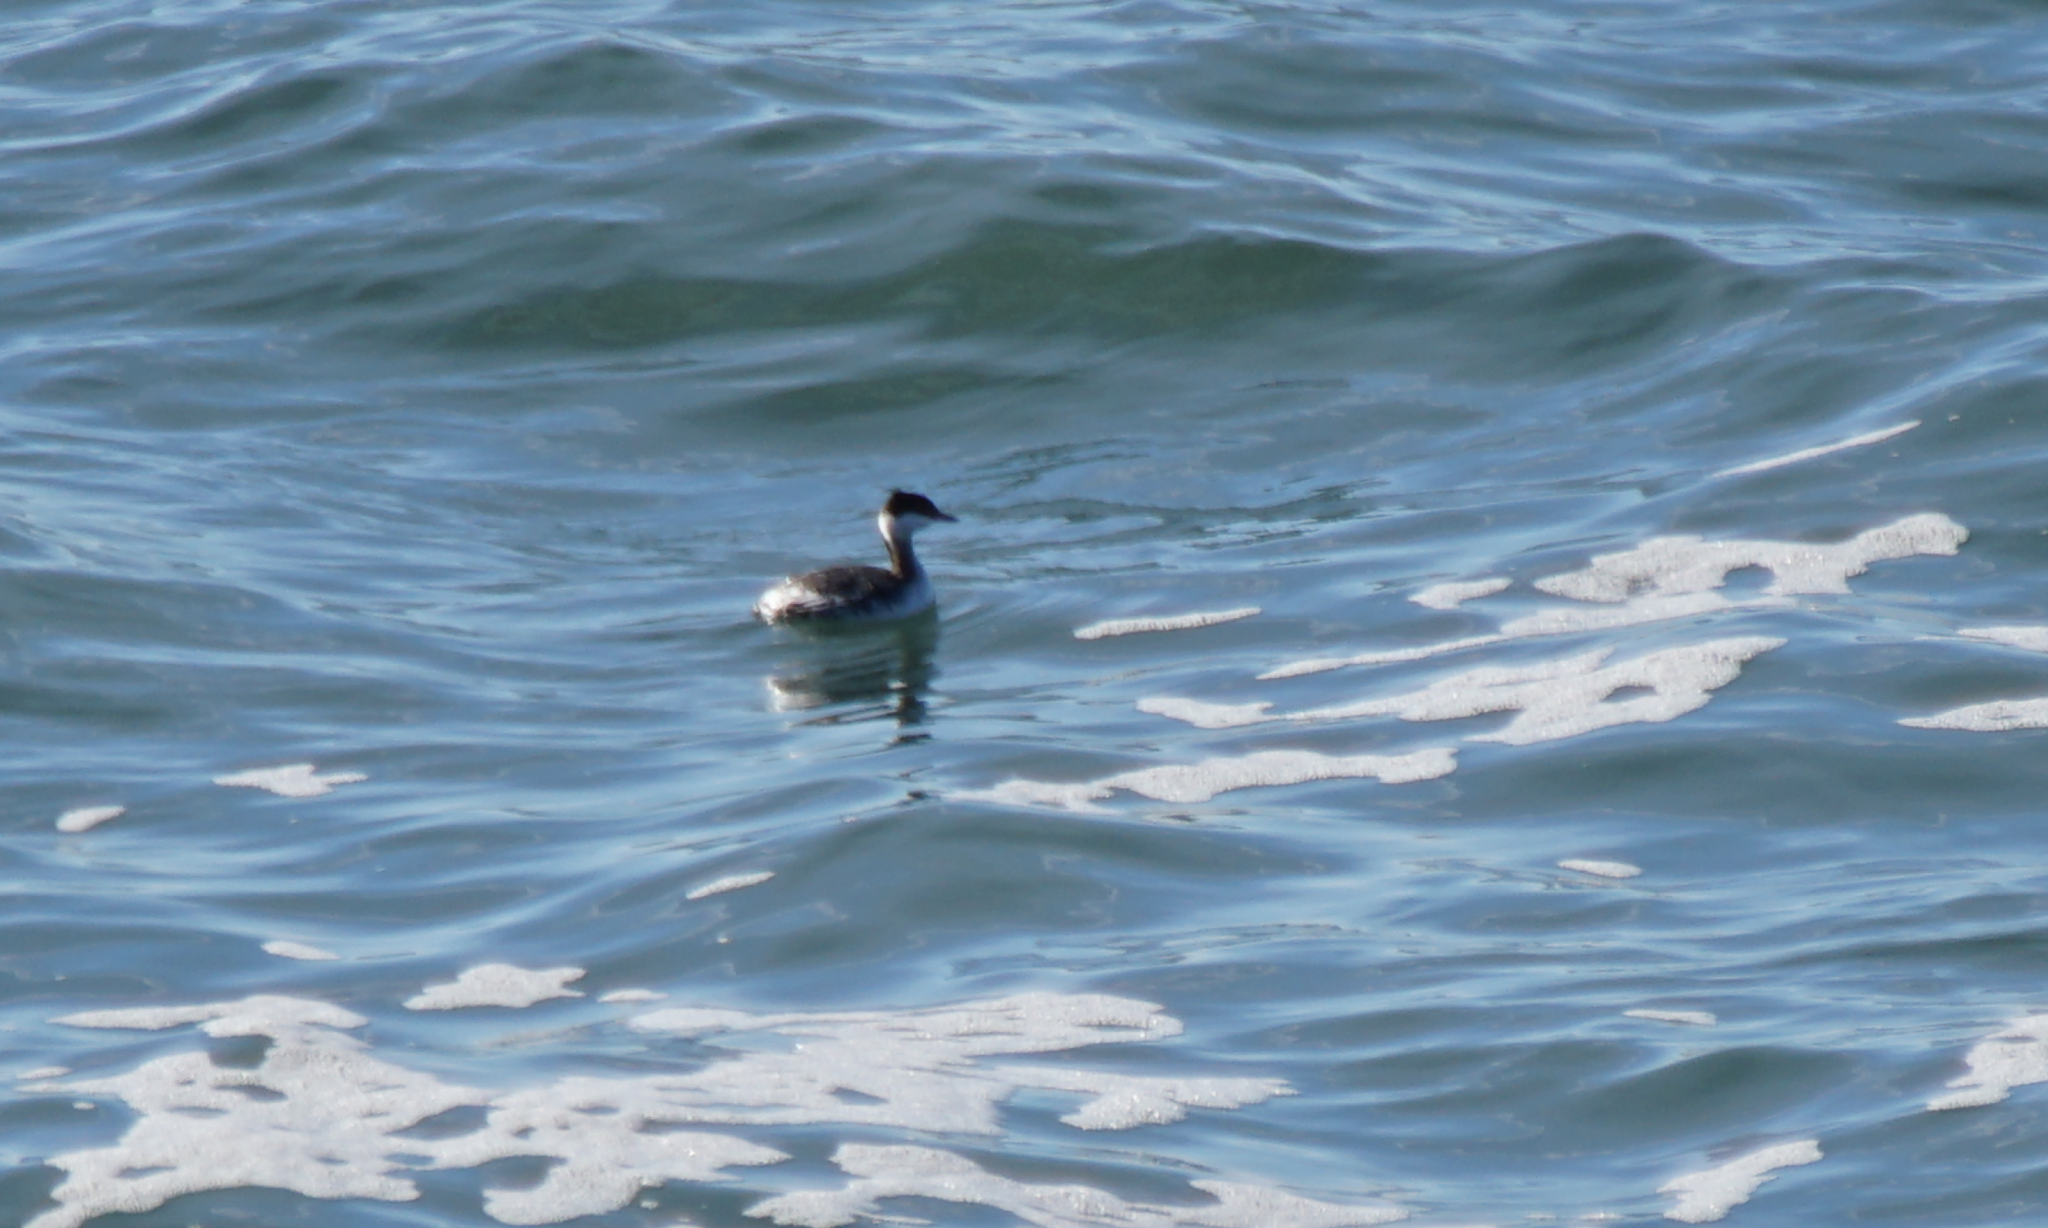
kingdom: Animalia
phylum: Chordata
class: Aves
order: Podicipediformes
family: Podicipedidae
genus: Podiceps
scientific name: Podiceps auritus
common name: Horned grebe
